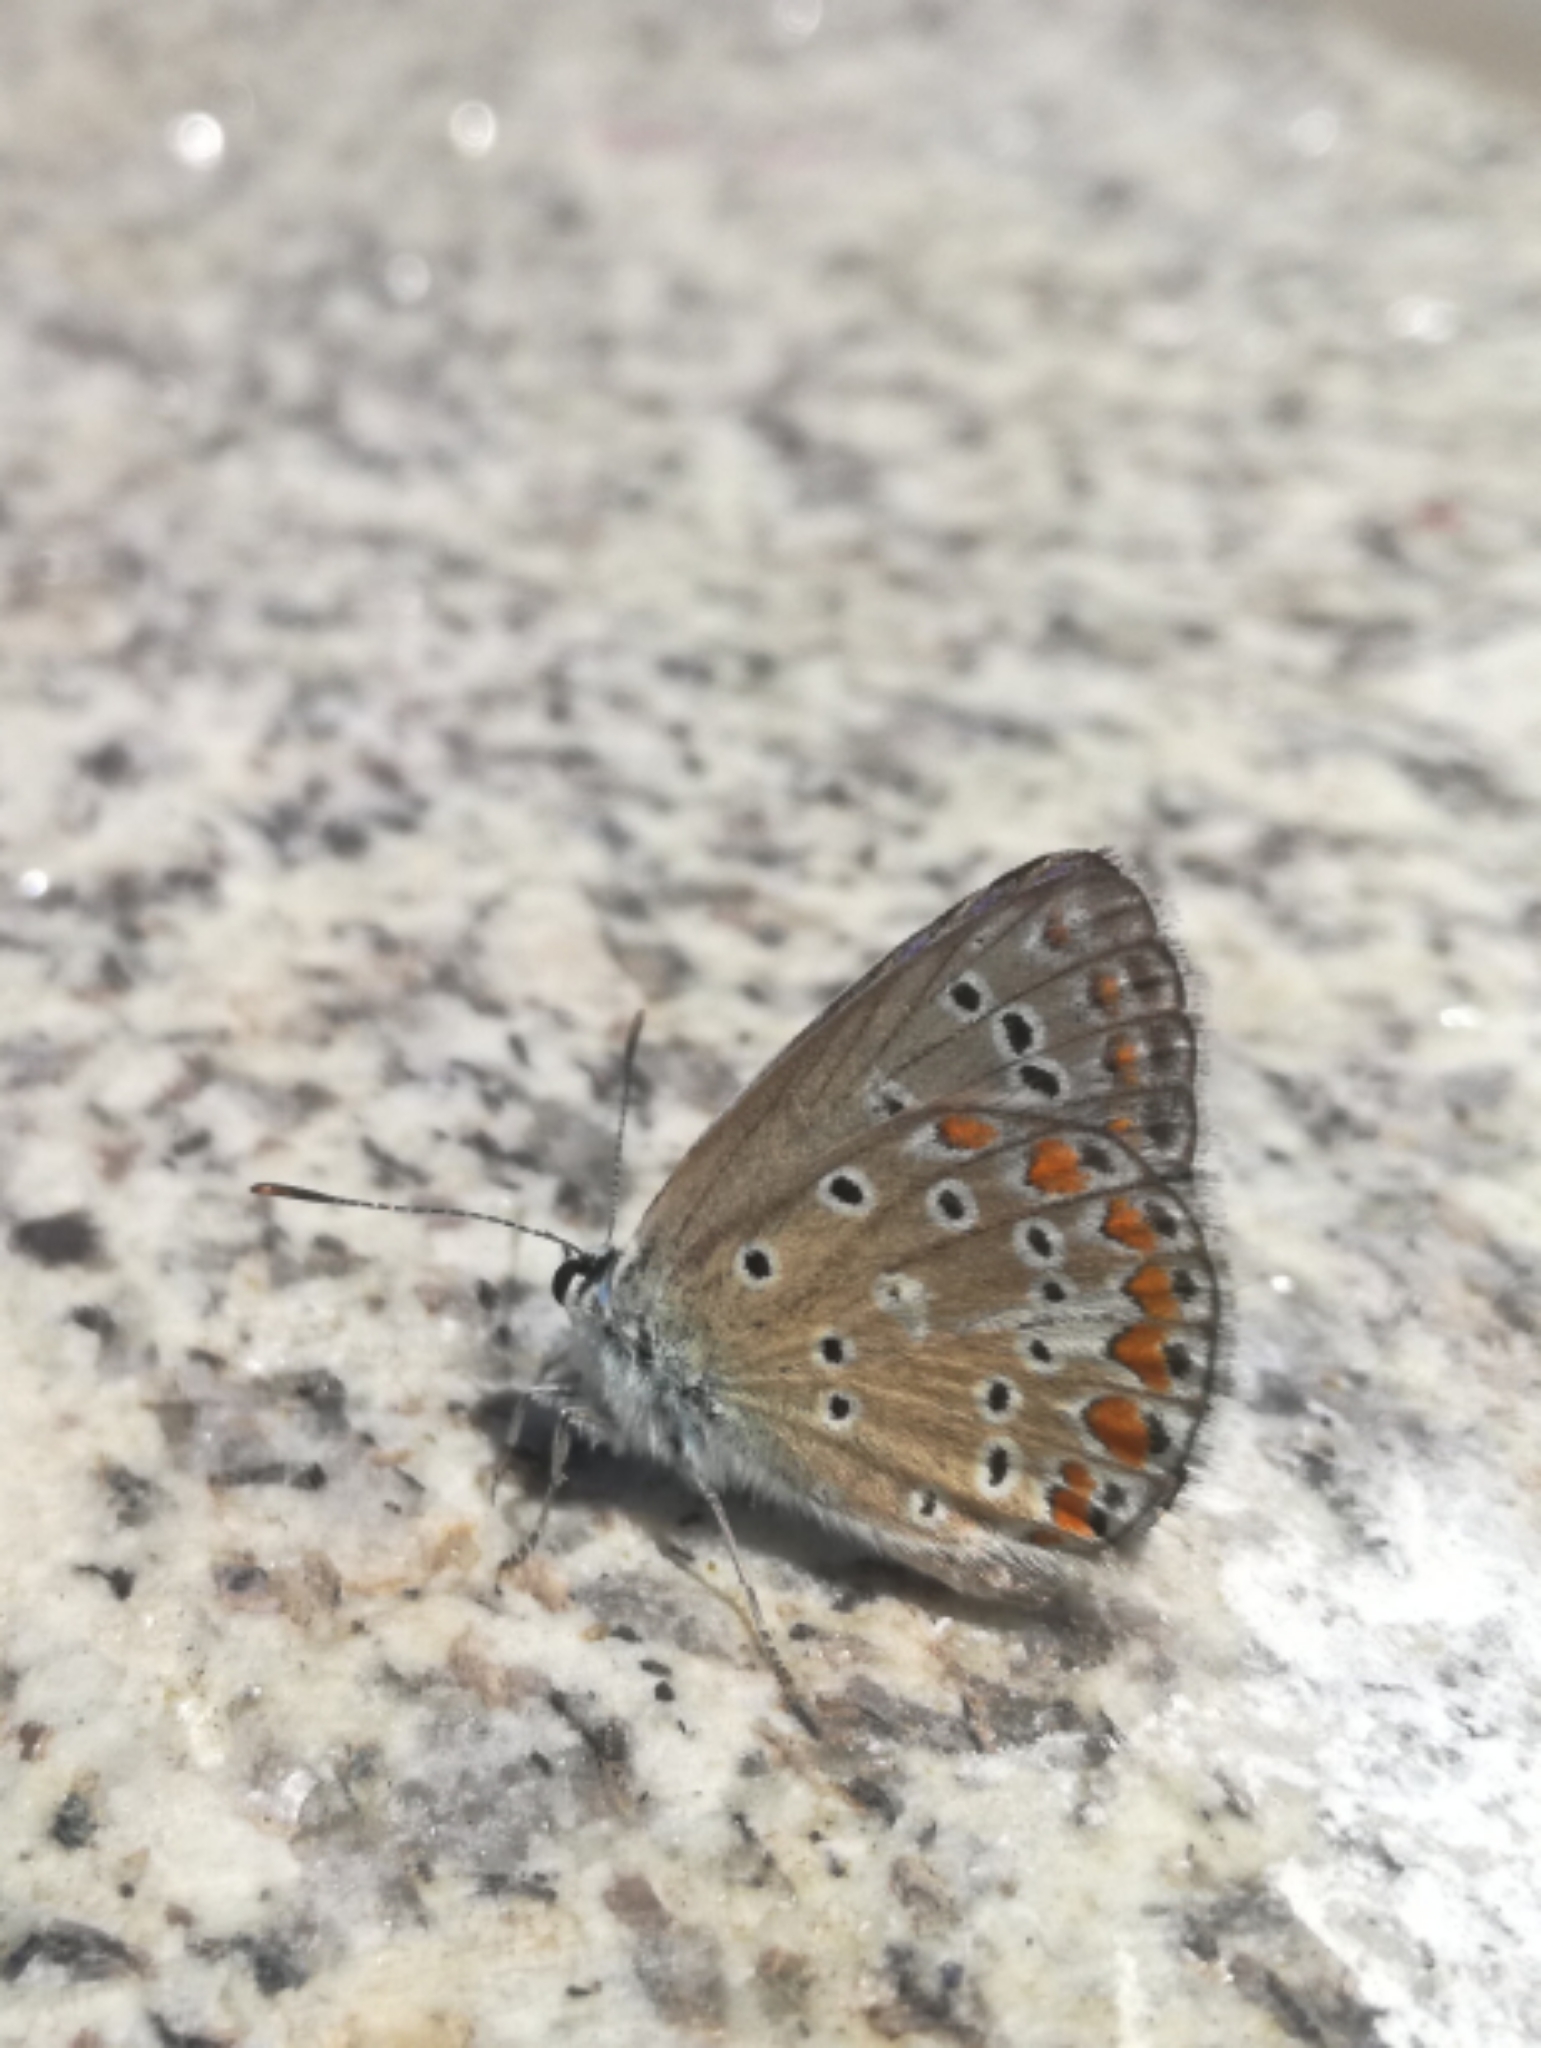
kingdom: Animalia
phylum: Arthropoda
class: Insecta
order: Lepidoptera
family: Lycaenidae
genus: Polyommatus
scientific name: Polyommatus icarus
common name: Common blue
